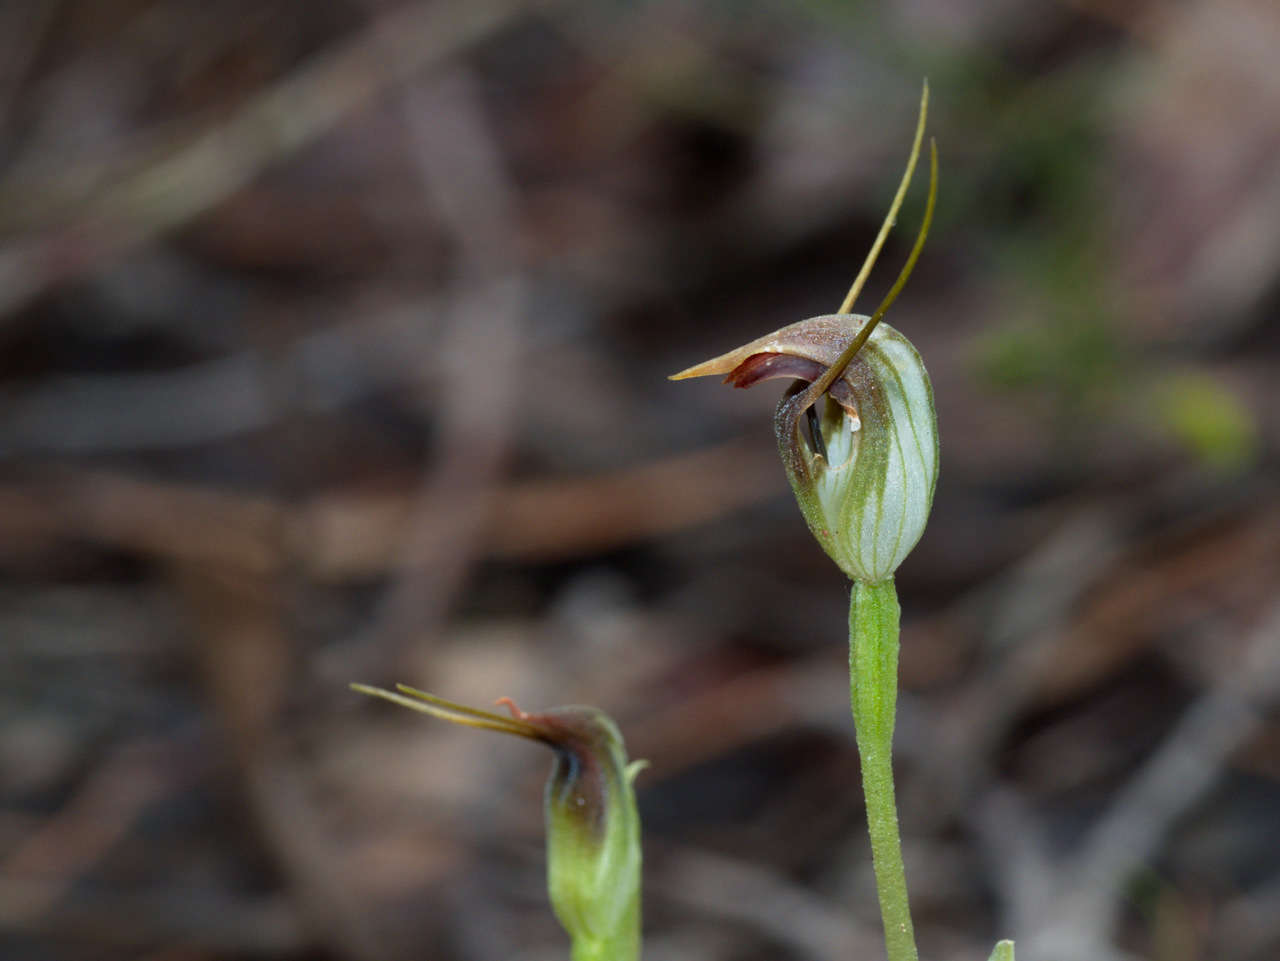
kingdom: Plantae
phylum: Tracheophyta
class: Liliopsida
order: Asparagales
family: Orchidaceae
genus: Pterostylis
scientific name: Pterostylis pedunculata
